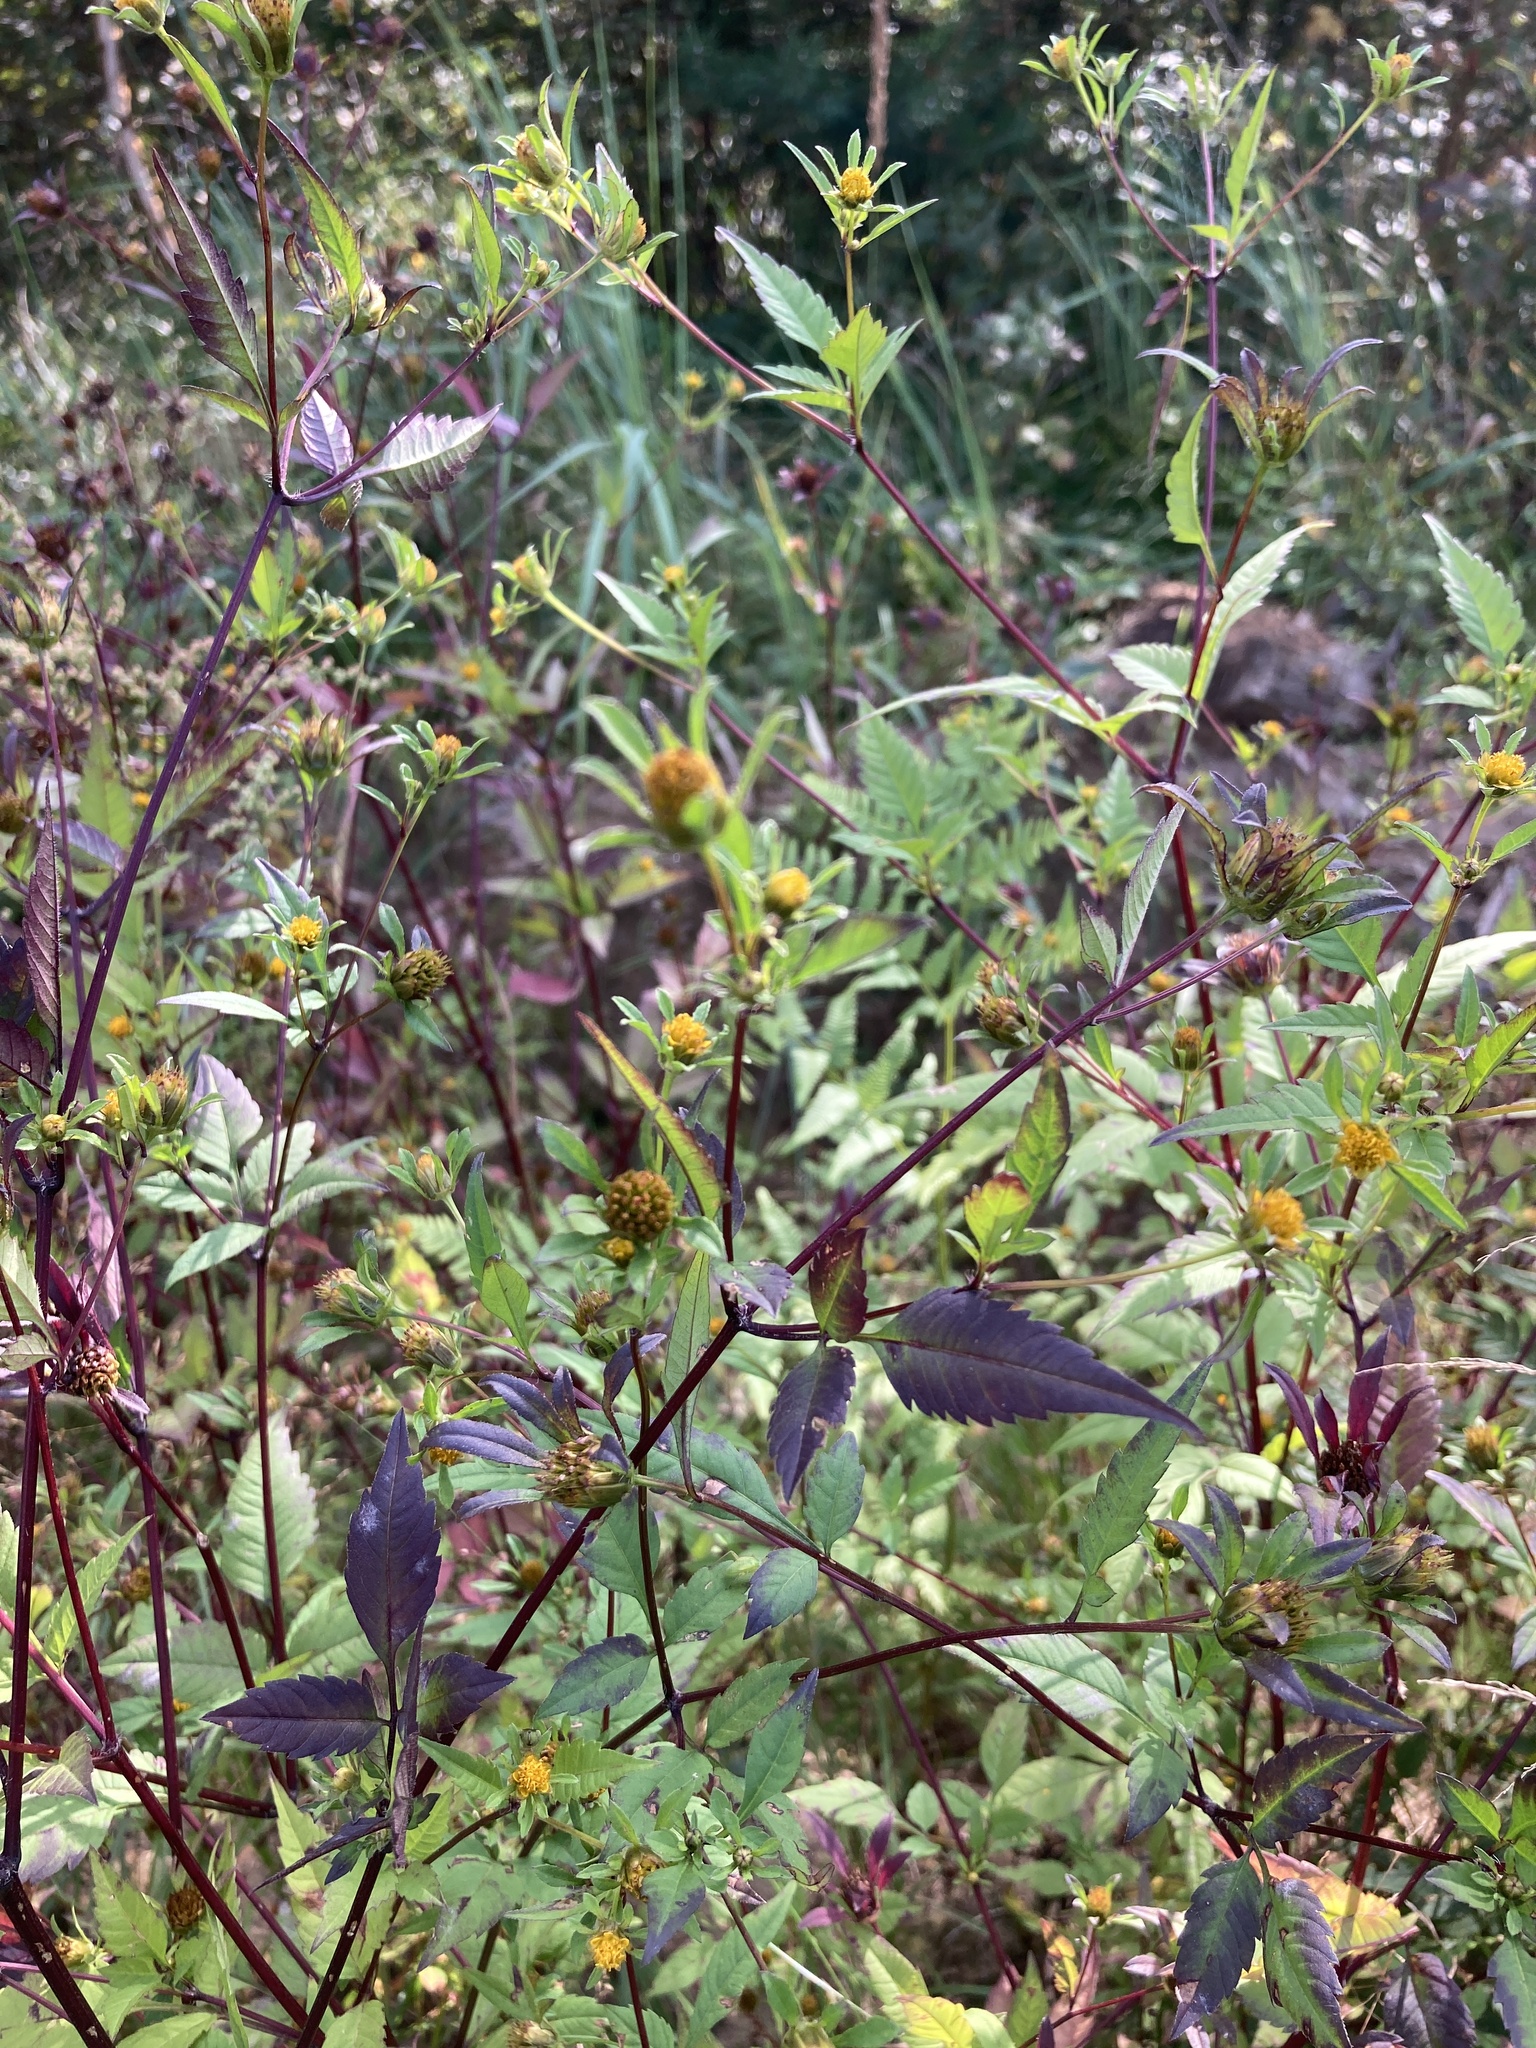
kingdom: Plantae
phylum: Tracheophyta
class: Magnoliopsida
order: Asterales
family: Asteraceae
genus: Bidens
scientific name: Bidens frondosa
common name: Beggarticks
